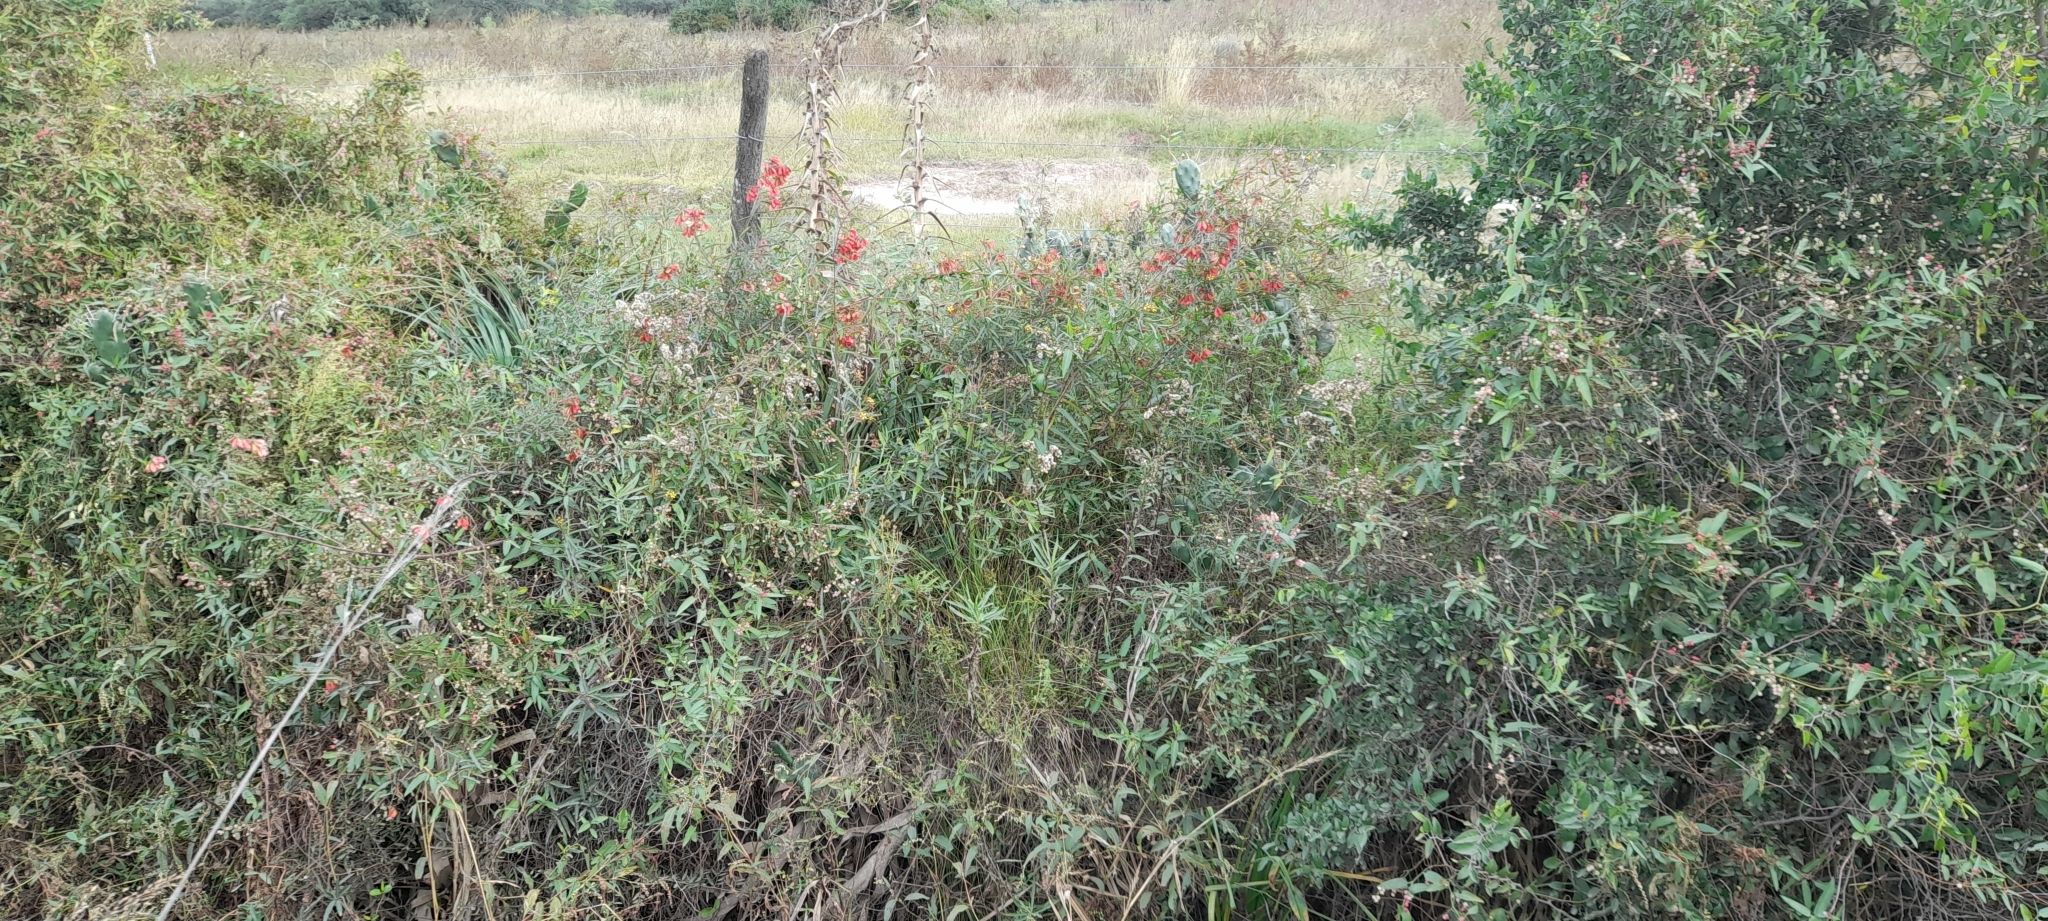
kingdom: Plantae
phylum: Tracheophyta
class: Magnoliopsida
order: Malpighiales
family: Malpighiaceae
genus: Heteropterys
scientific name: Heteropterys glabra
